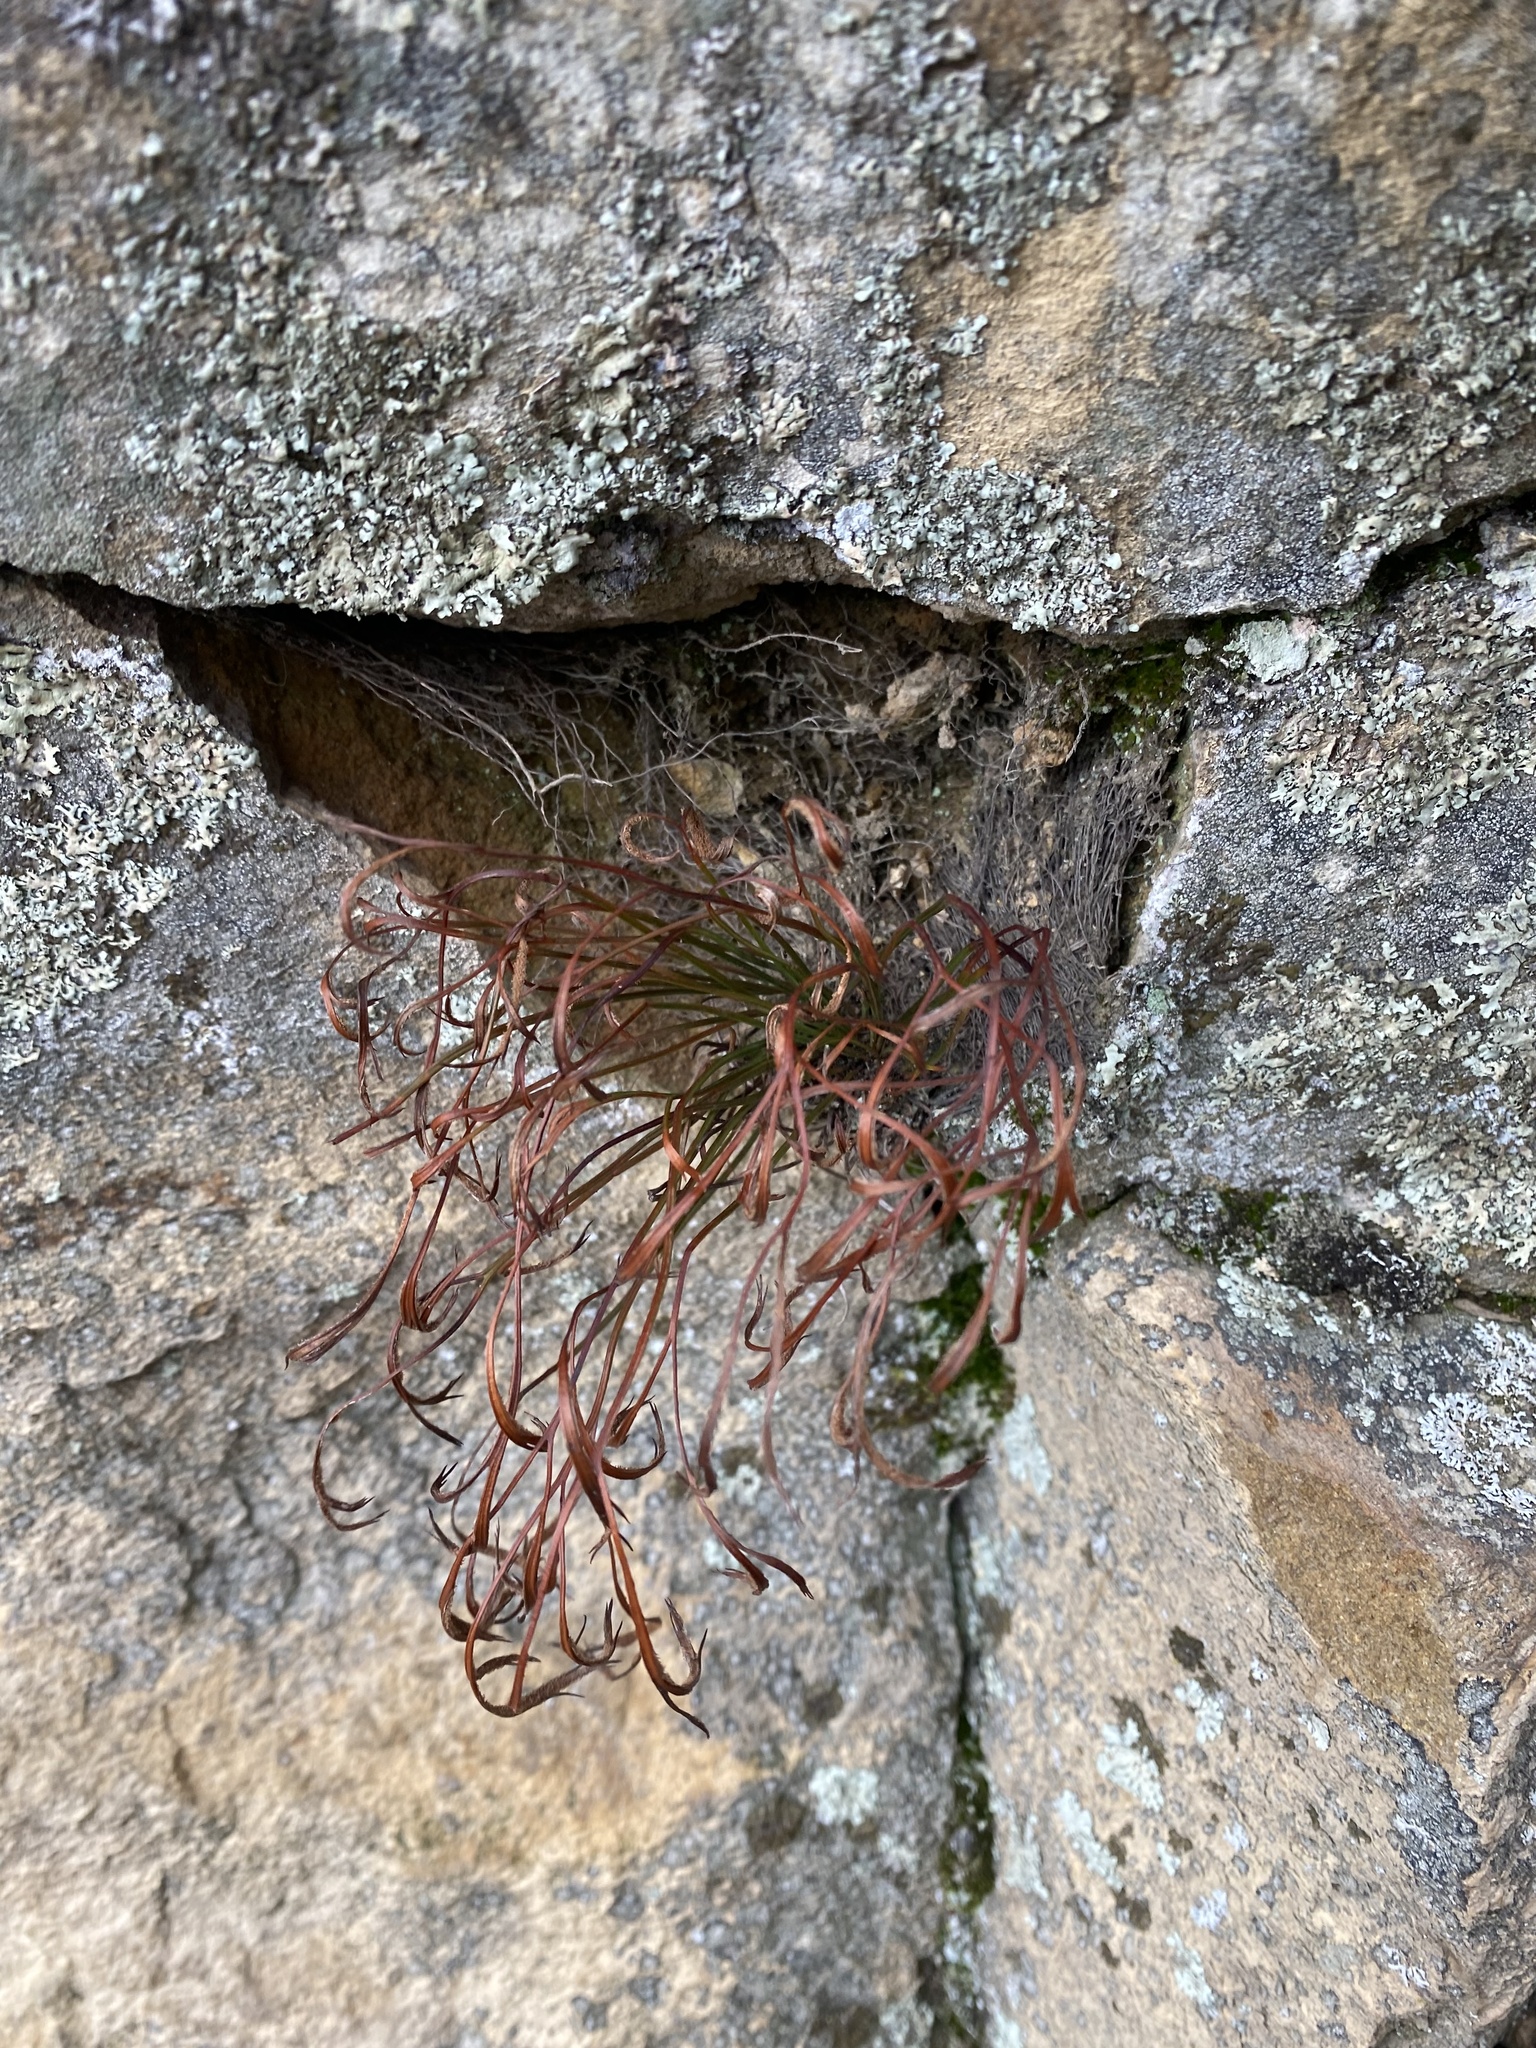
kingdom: Plantae
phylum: Tracheophyta
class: Polypodiopsida
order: Polypodiales
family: Aspleniaceae
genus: Asplenium
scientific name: Asplenium septentrionale
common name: Forked spleenwort
